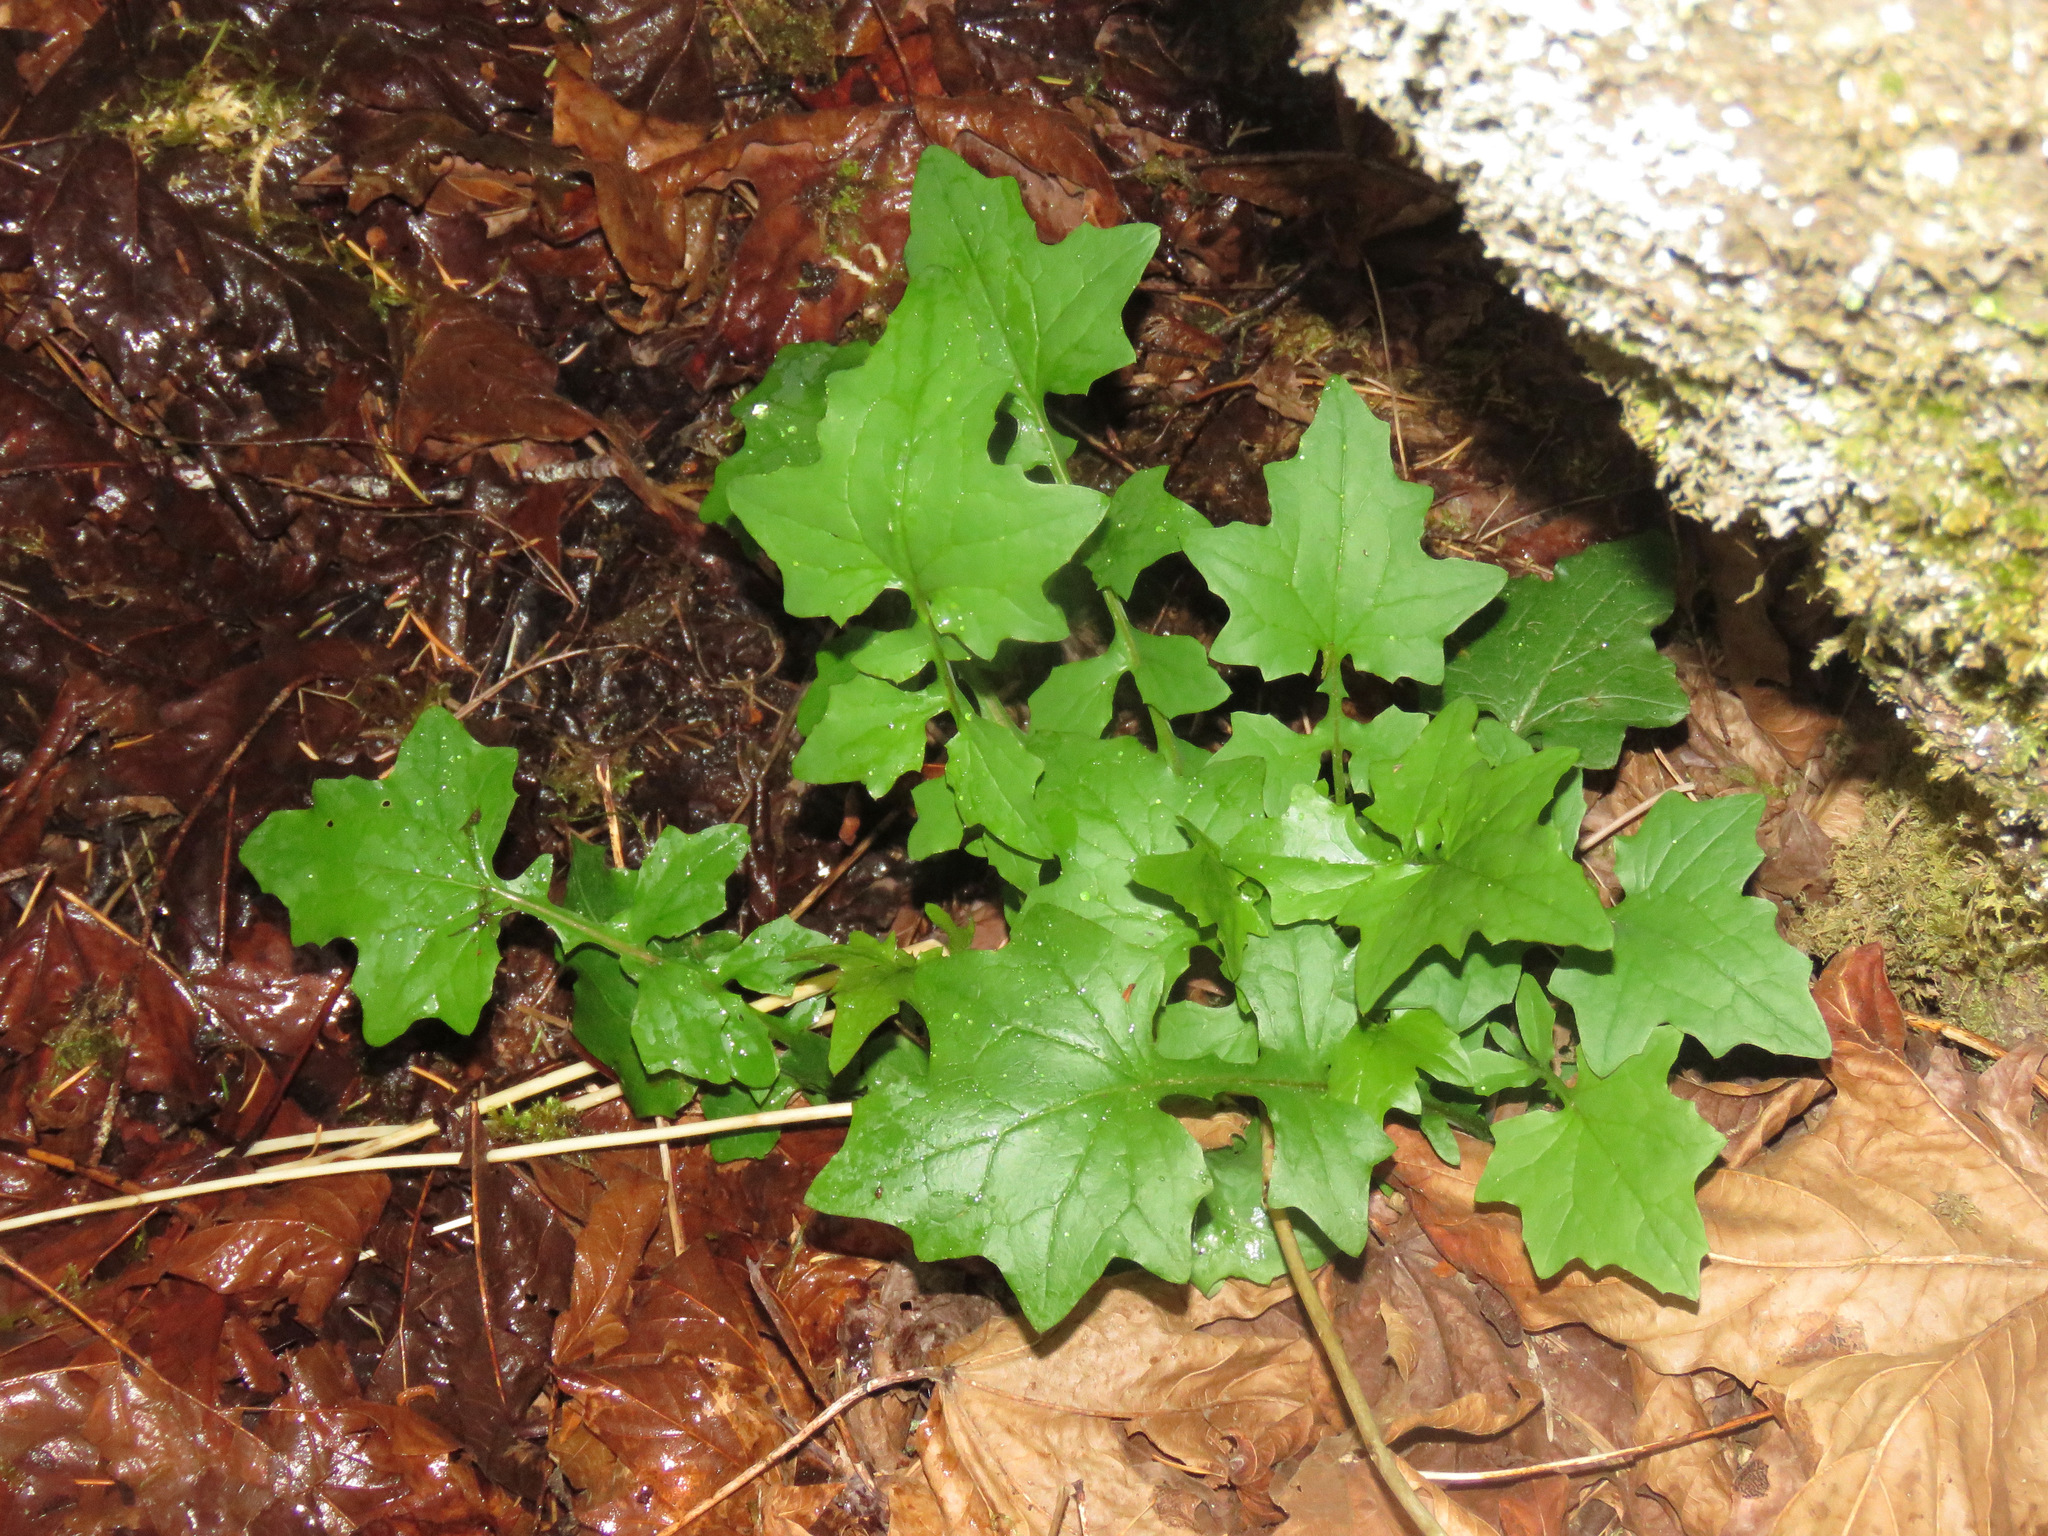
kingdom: Plantae
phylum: Tracheophyta
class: Magnoliopsida
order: Asterales
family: Asteraceae
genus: Mycelis
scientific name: Mycelis muralis
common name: Wall lettuce
